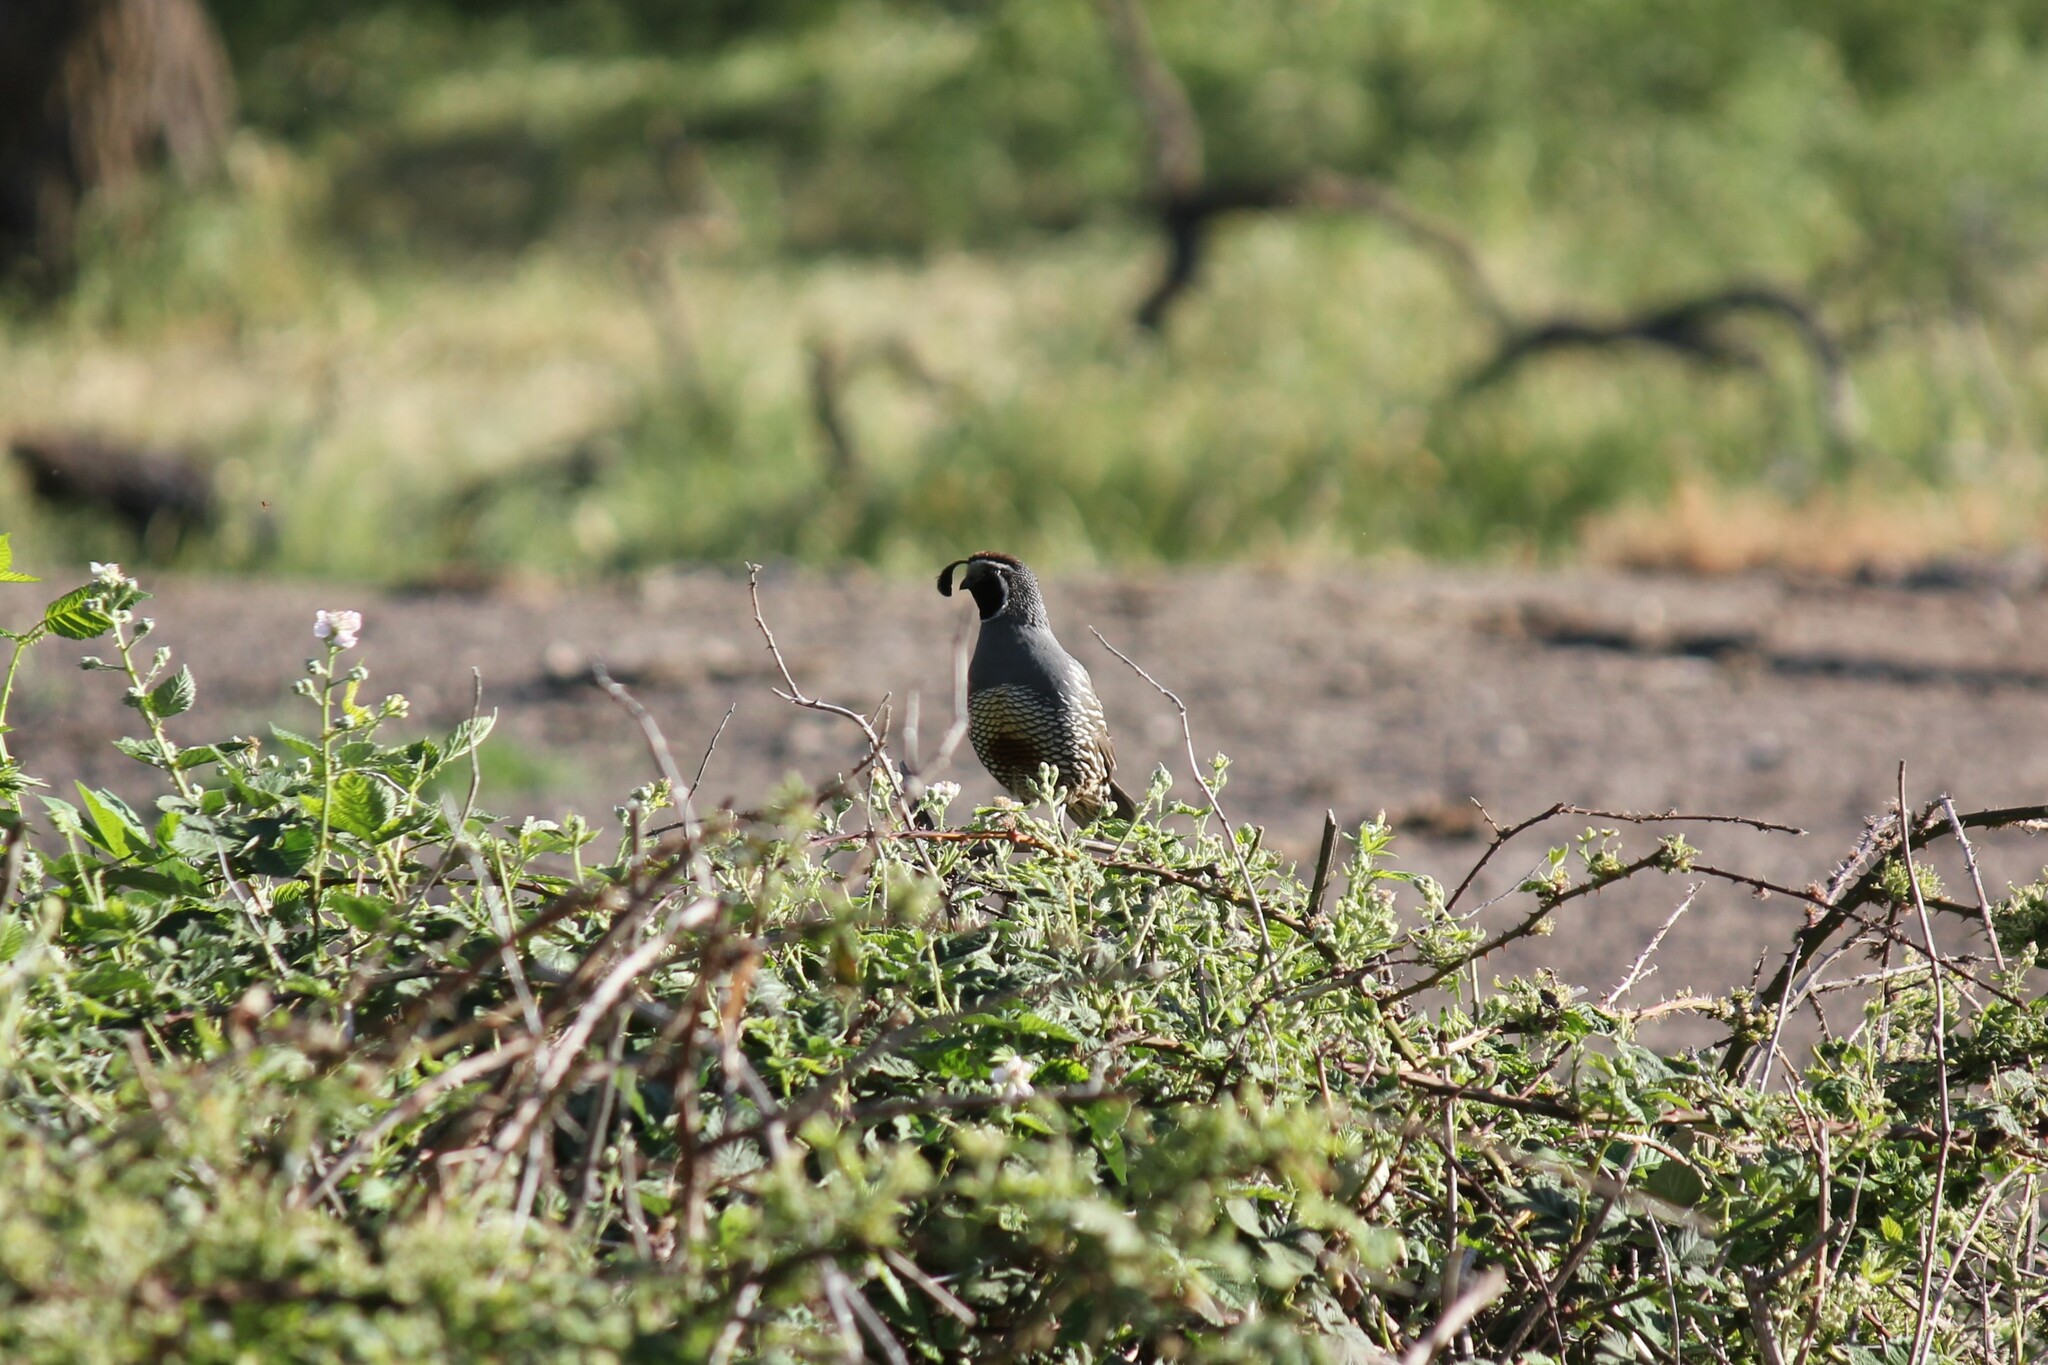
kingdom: Animalia
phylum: Chordata
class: Aves
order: Galliformes
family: Odontophoridae
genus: Callipepla
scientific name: Callipepla californica
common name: California quail
